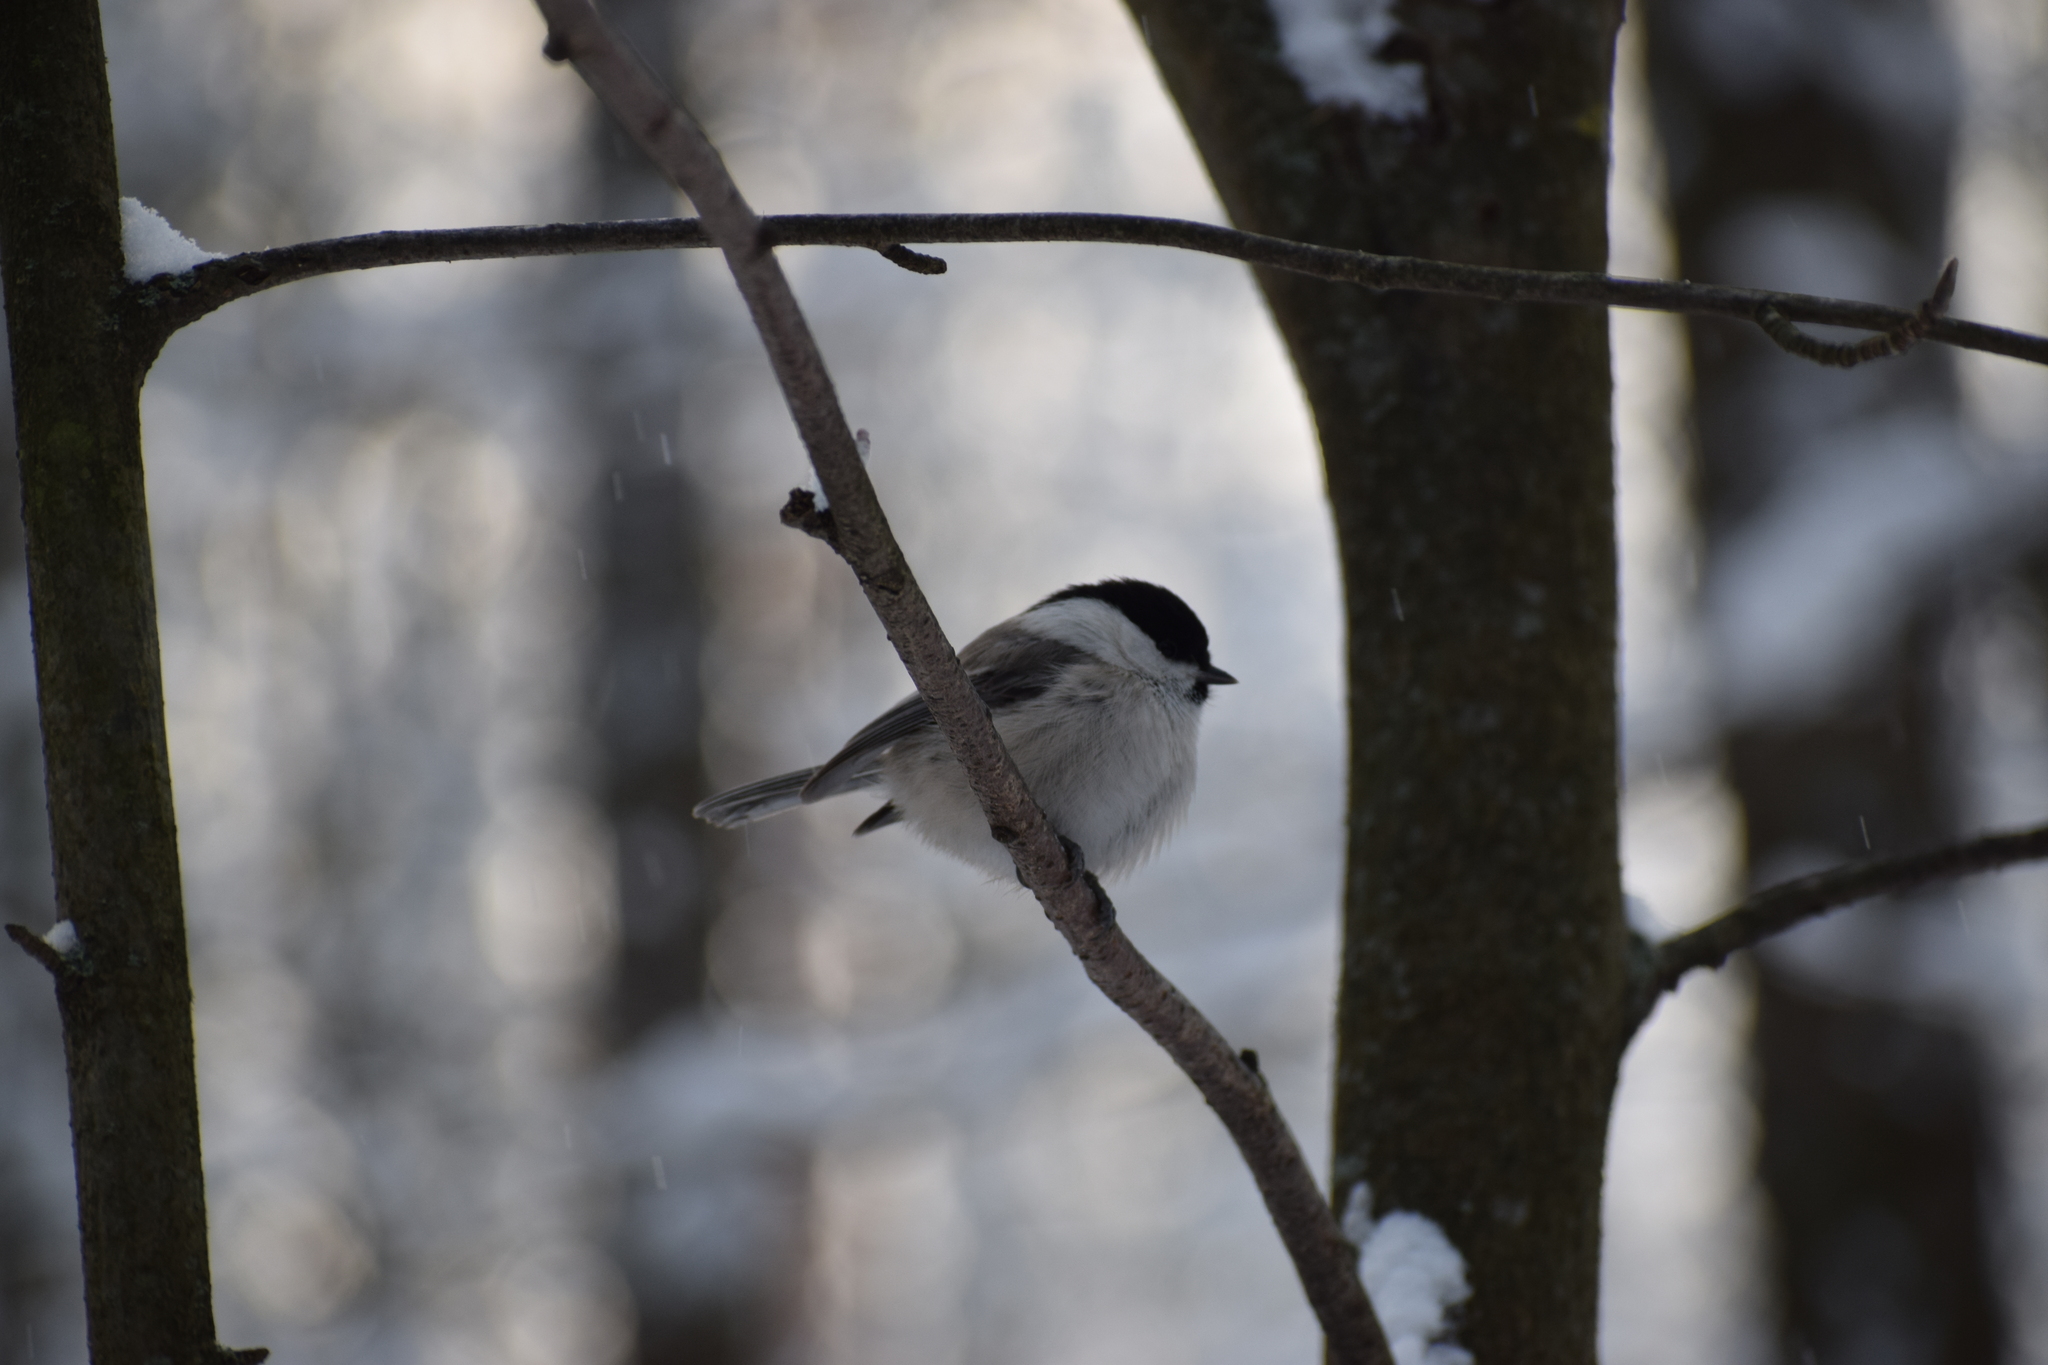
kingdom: Animalia
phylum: Chordata
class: Aves
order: Passeriformes
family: Paridae
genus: Poecile
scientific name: Poecile montanus
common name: Willow tit
